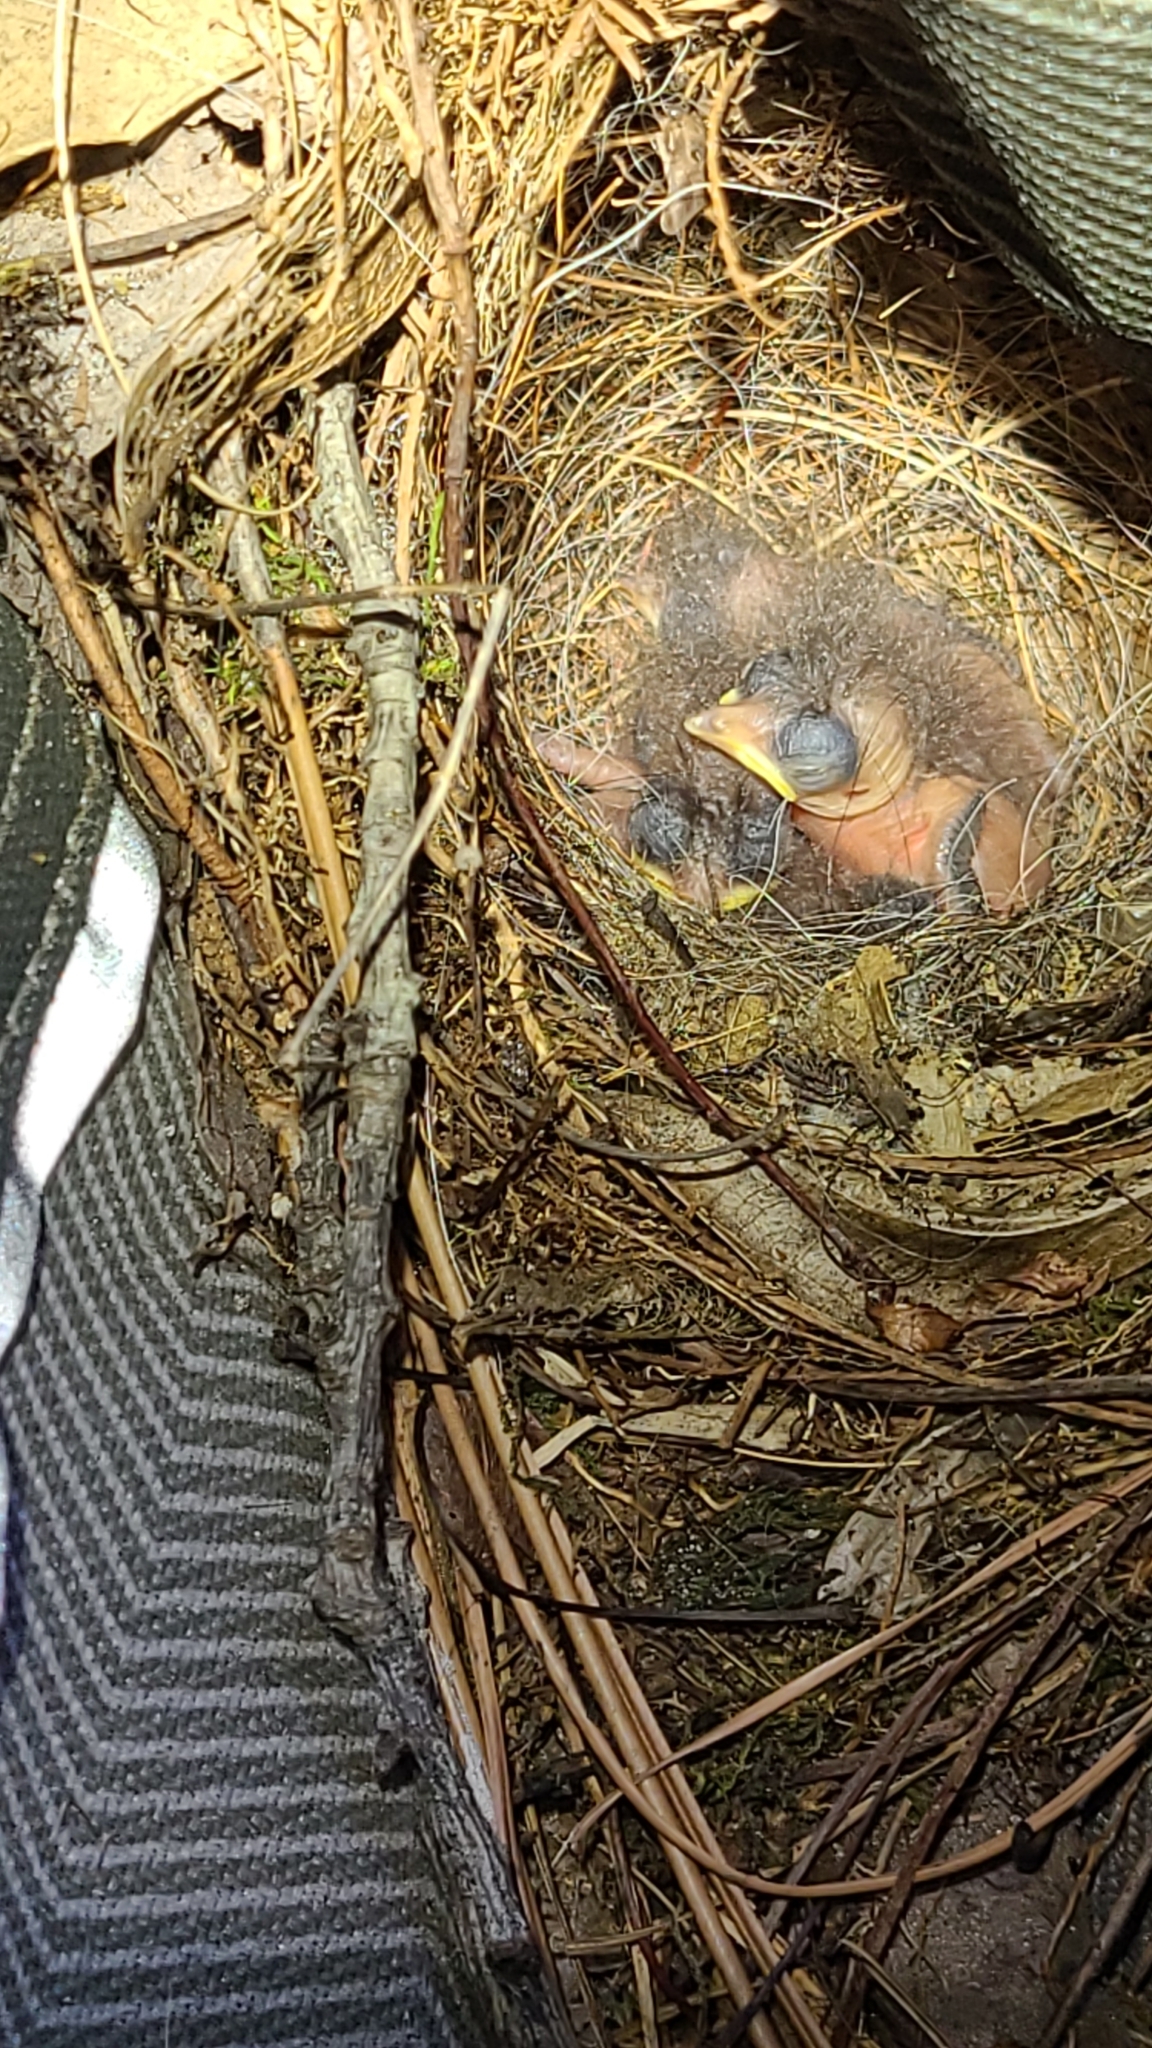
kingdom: Animalia
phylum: Chordata
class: Aves
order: Passeriformes
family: Troglodytidae
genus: Thryothorus
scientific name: Thryothorus ludovicianus
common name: Carolina wren
